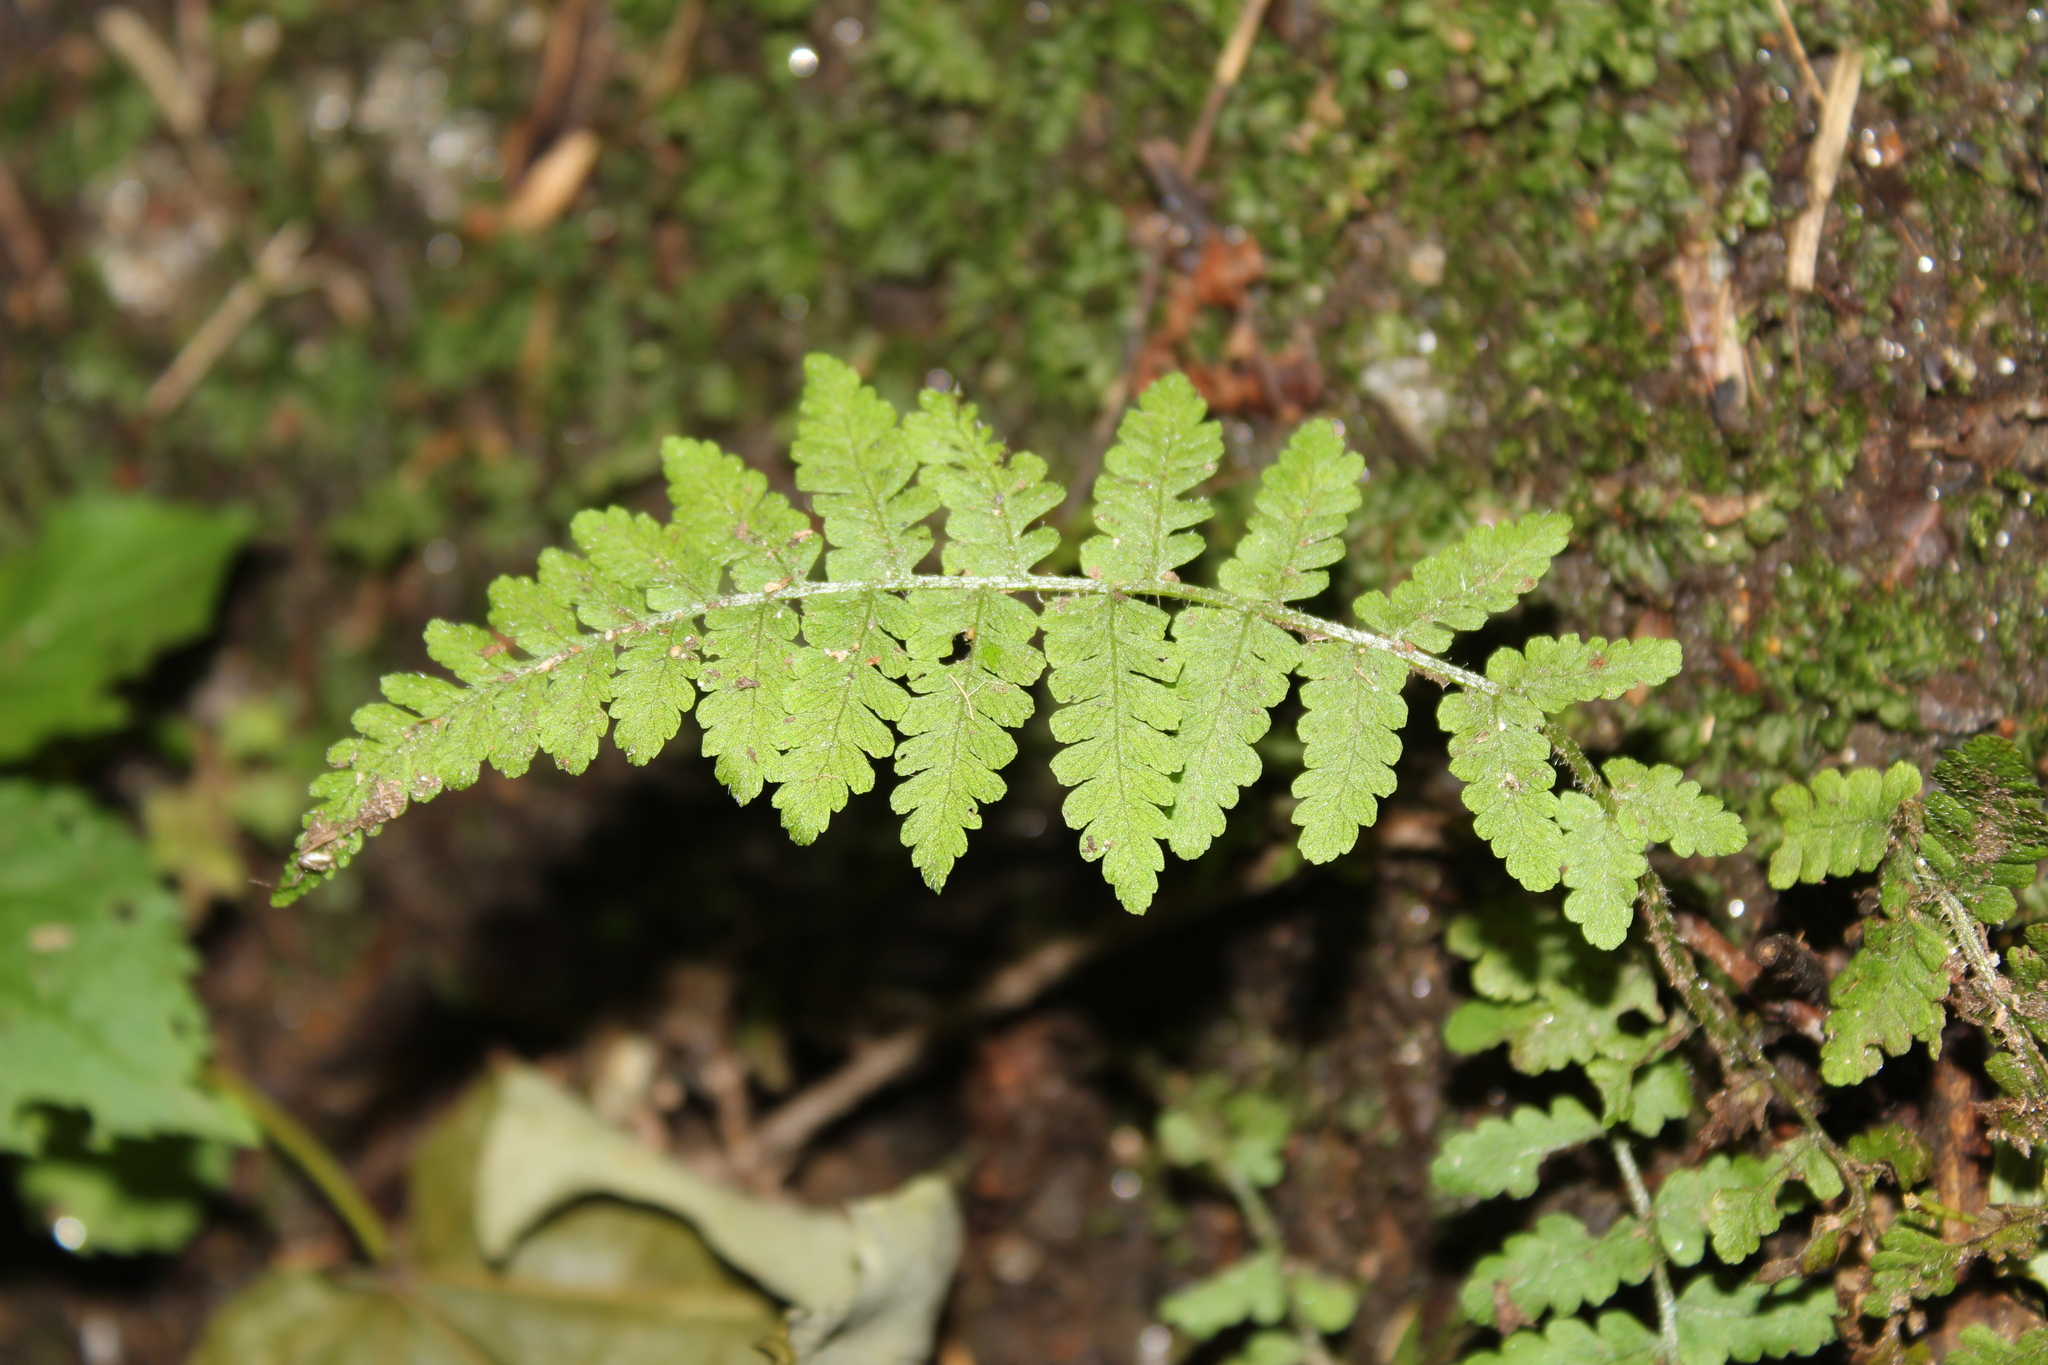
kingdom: Plantae
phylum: Tracheophyta
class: Polypodiopsida
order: Polypodiales
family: Athyriaceae
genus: Deparia
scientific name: Deparia acrostichoides
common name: Silver false spleenwort
